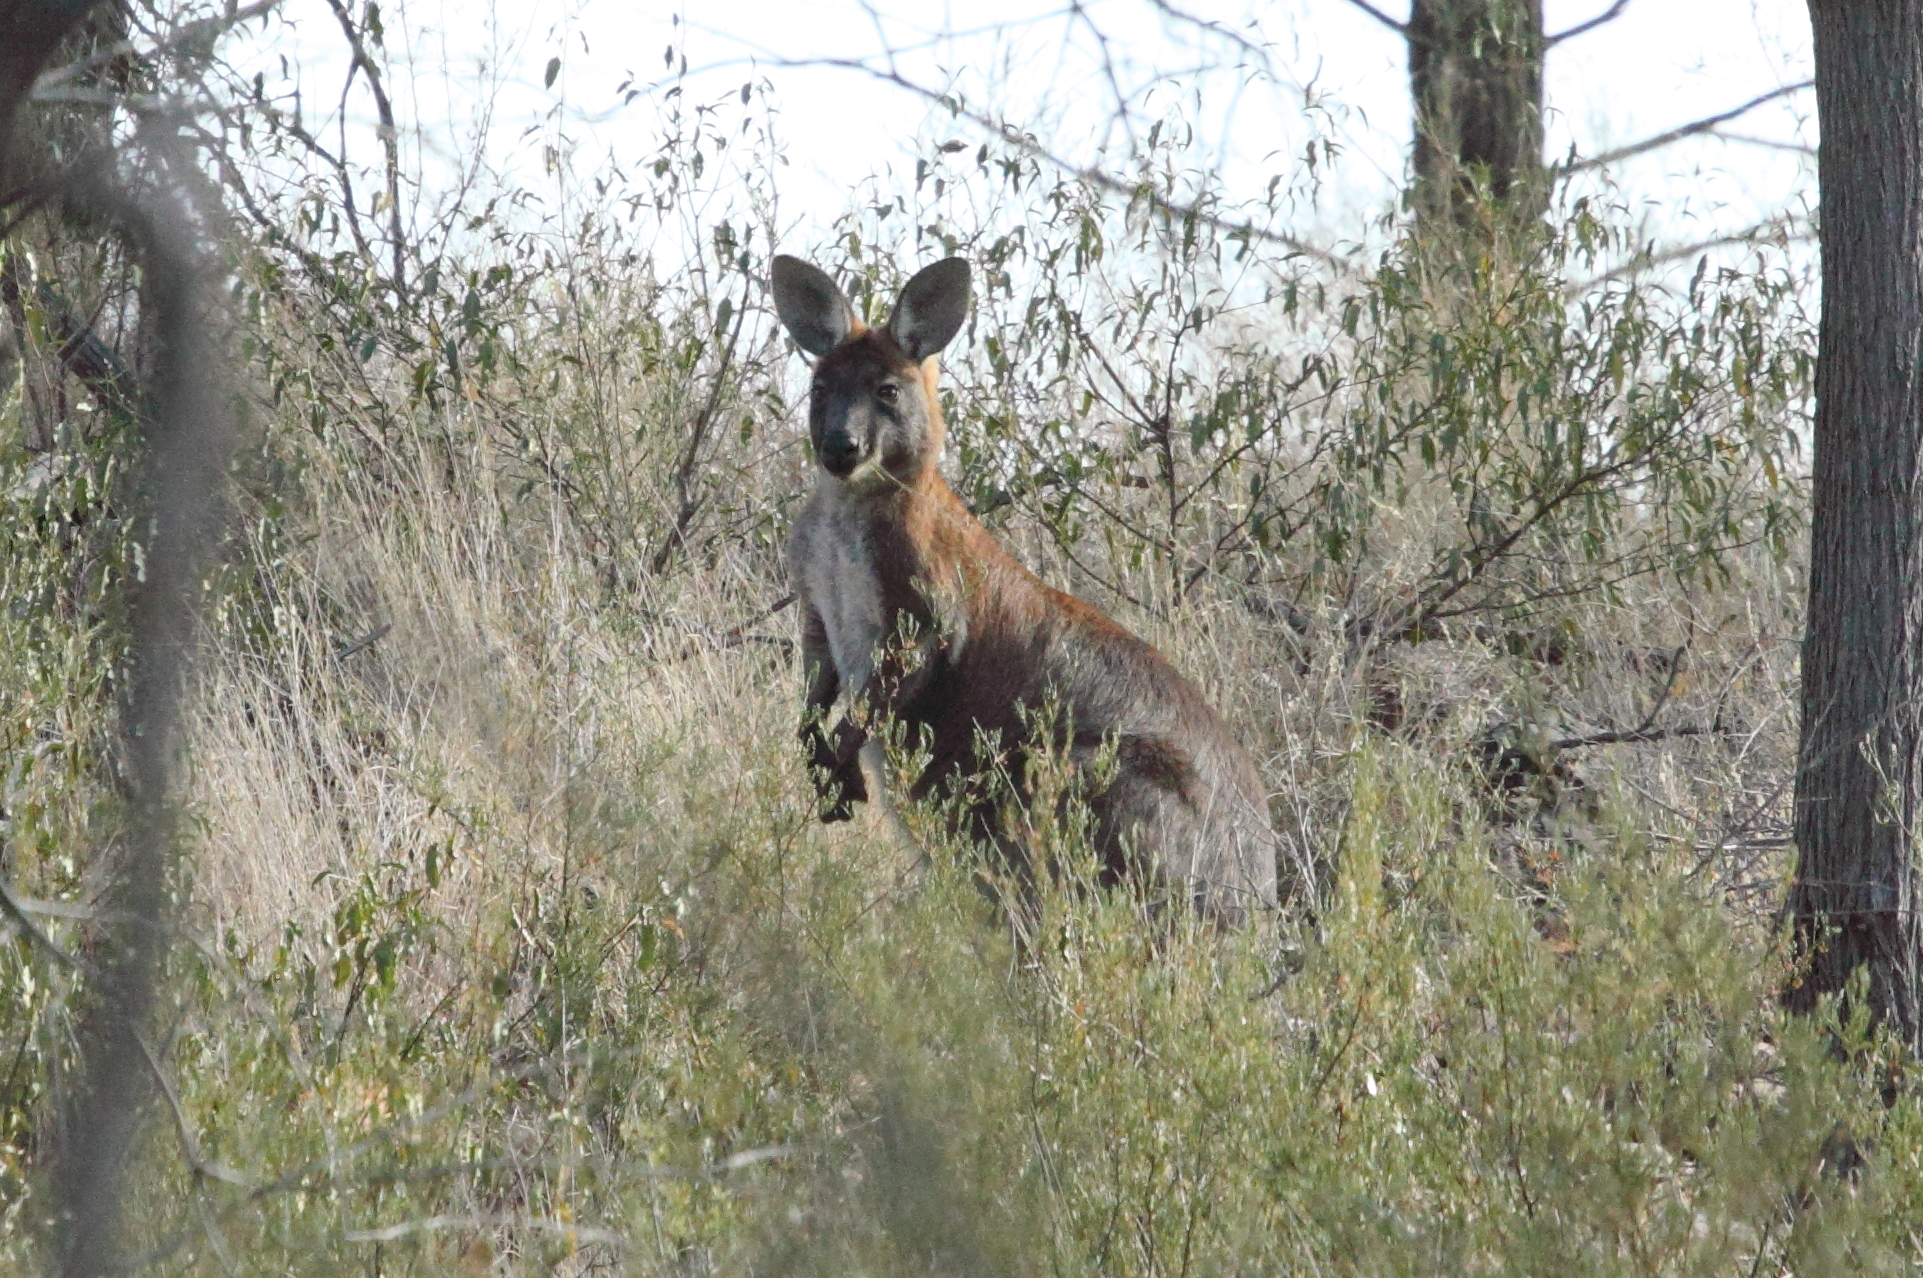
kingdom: Animalia
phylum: Chordata
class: Mammalia
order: Diprotodontia
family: Macropodidae
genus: Macropus
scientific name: Macropus robustus
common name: Eastern wallaroo
